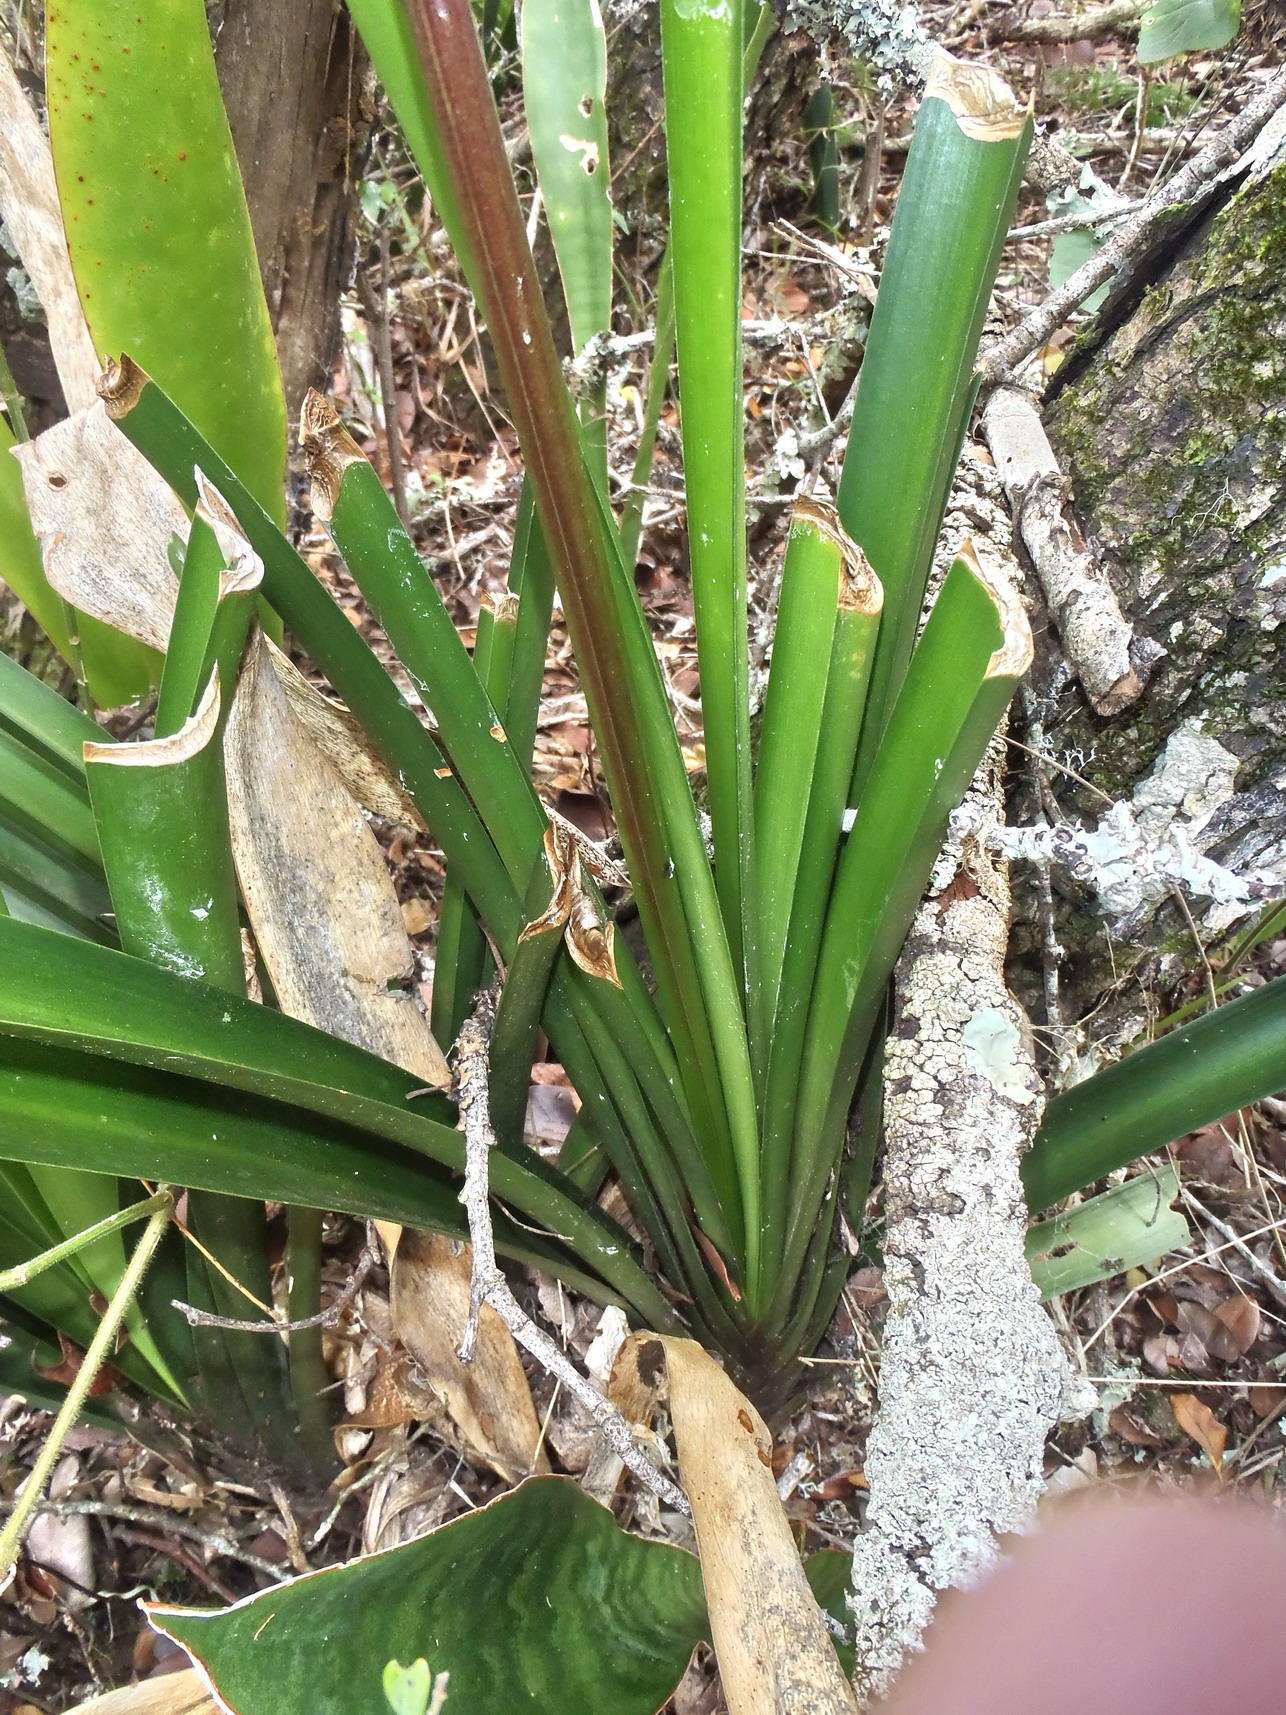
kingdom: Plantae
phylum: Tracheophyta
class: Liliopsida
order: Asparagales
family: Amaryllidaceae
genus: Clivia
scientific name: Clivia nobilis
